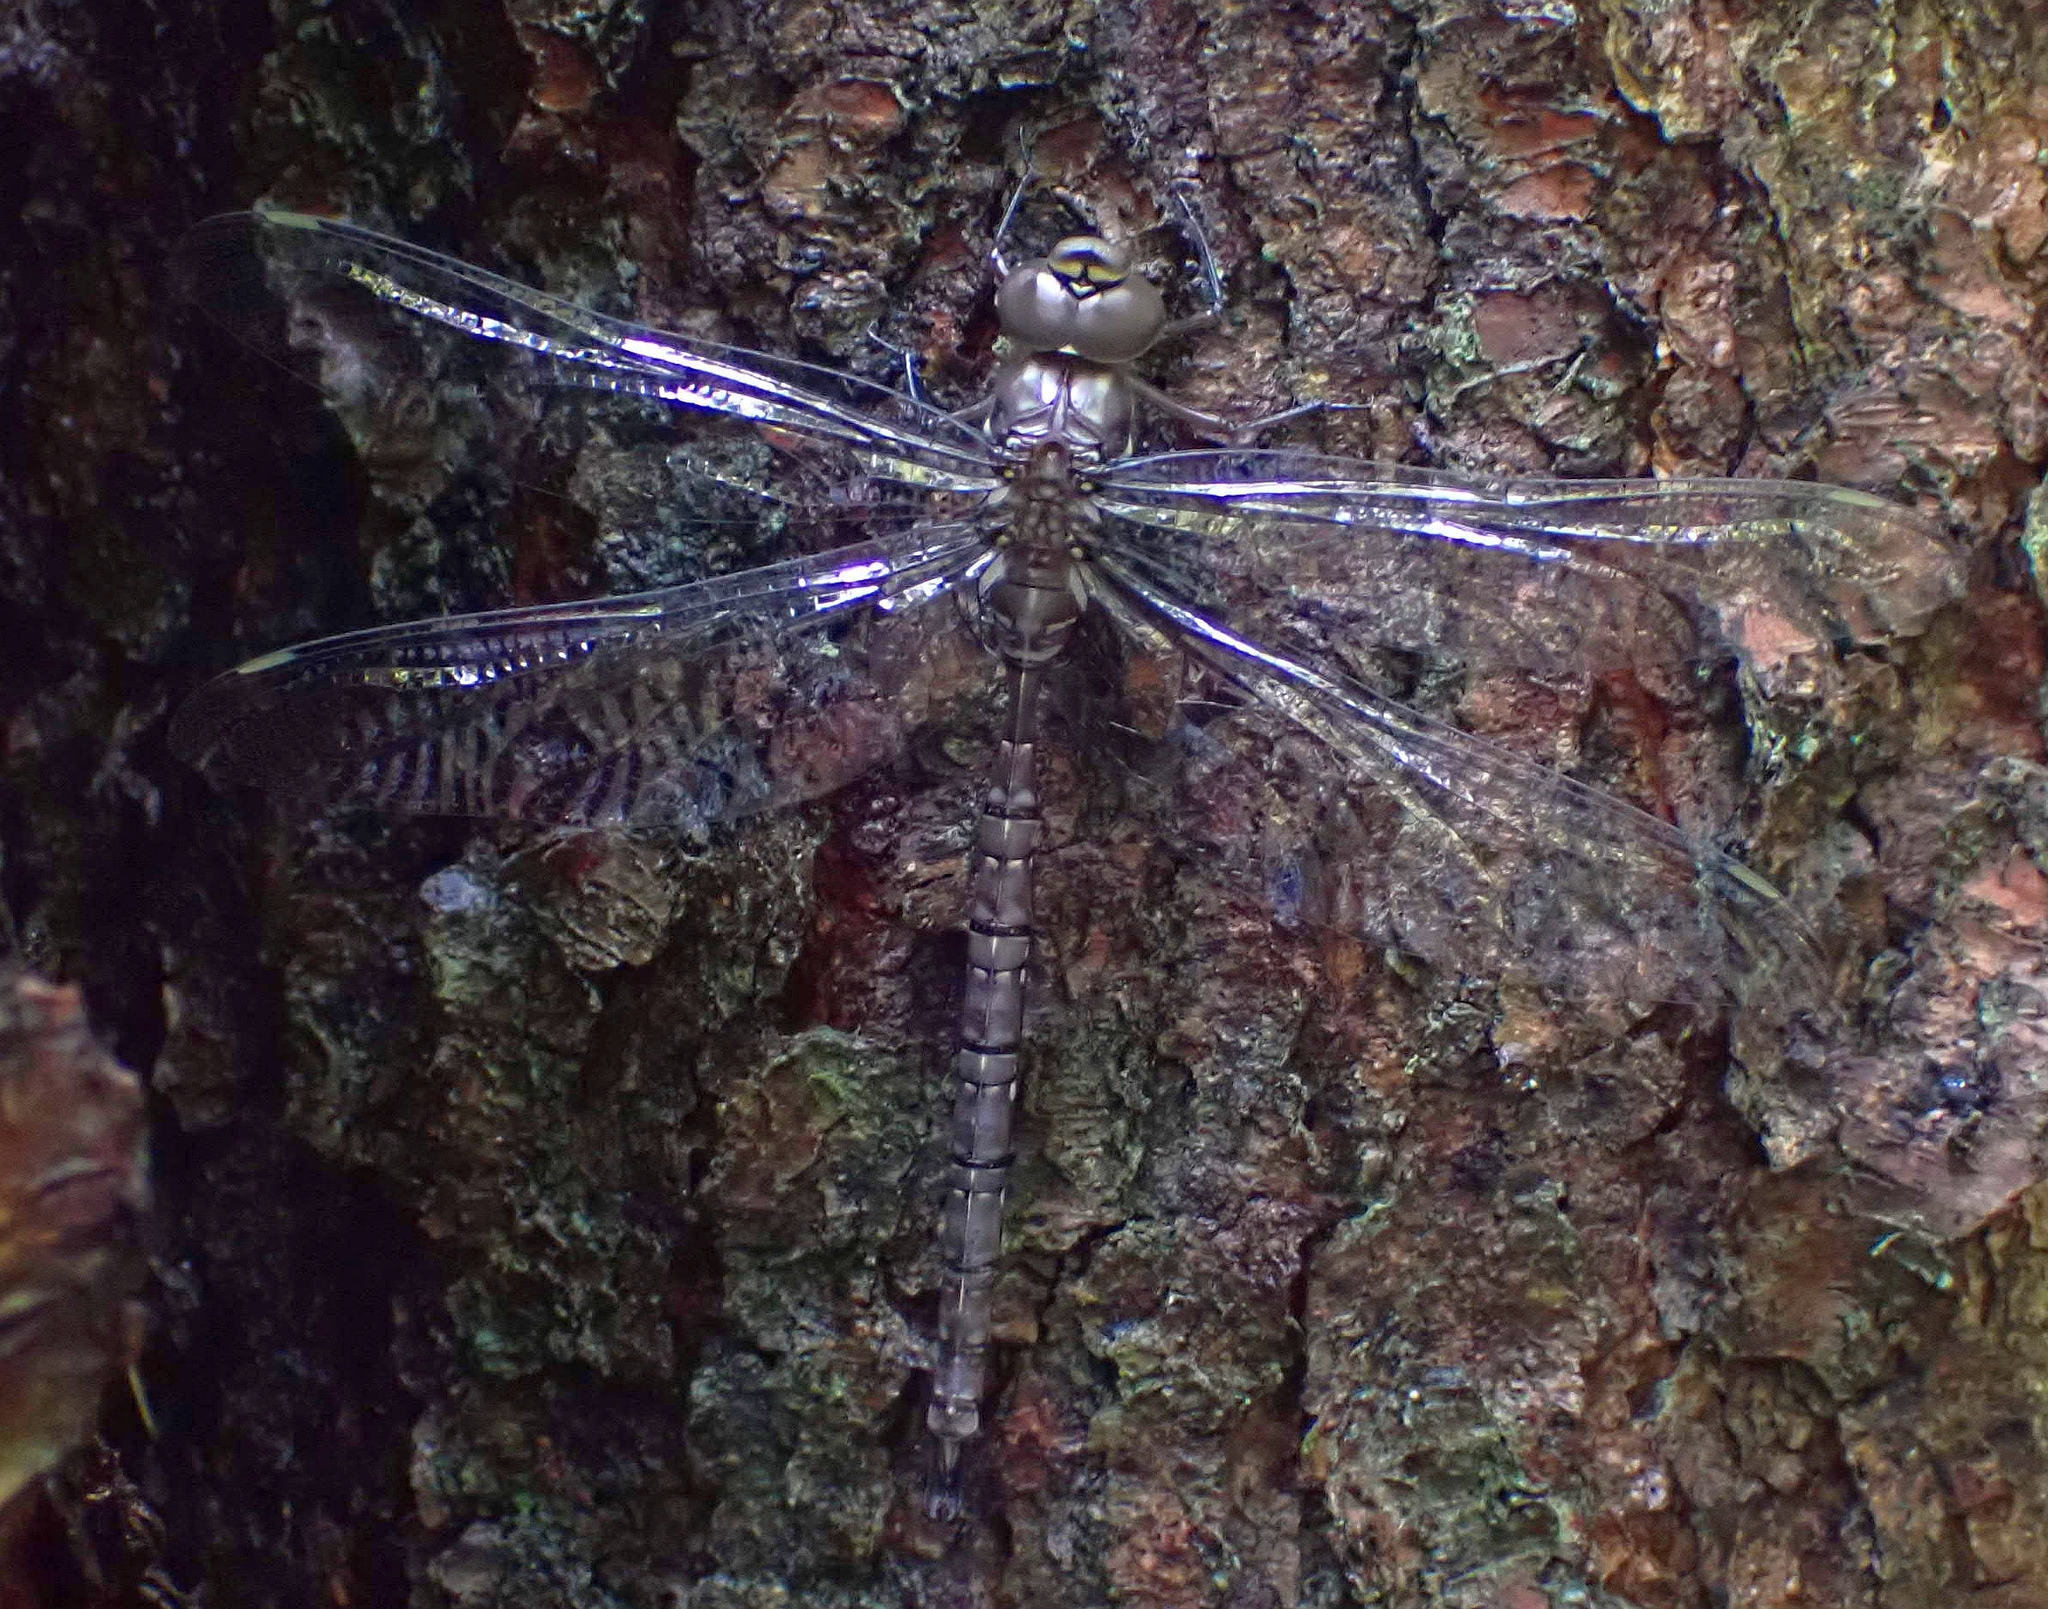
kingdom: Animalia
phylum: Arthropoda
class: Insecta
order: Odonata
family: Aeshnidae
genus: Aeshna
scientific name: Aeshna umbrosa
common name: Shadow darner
